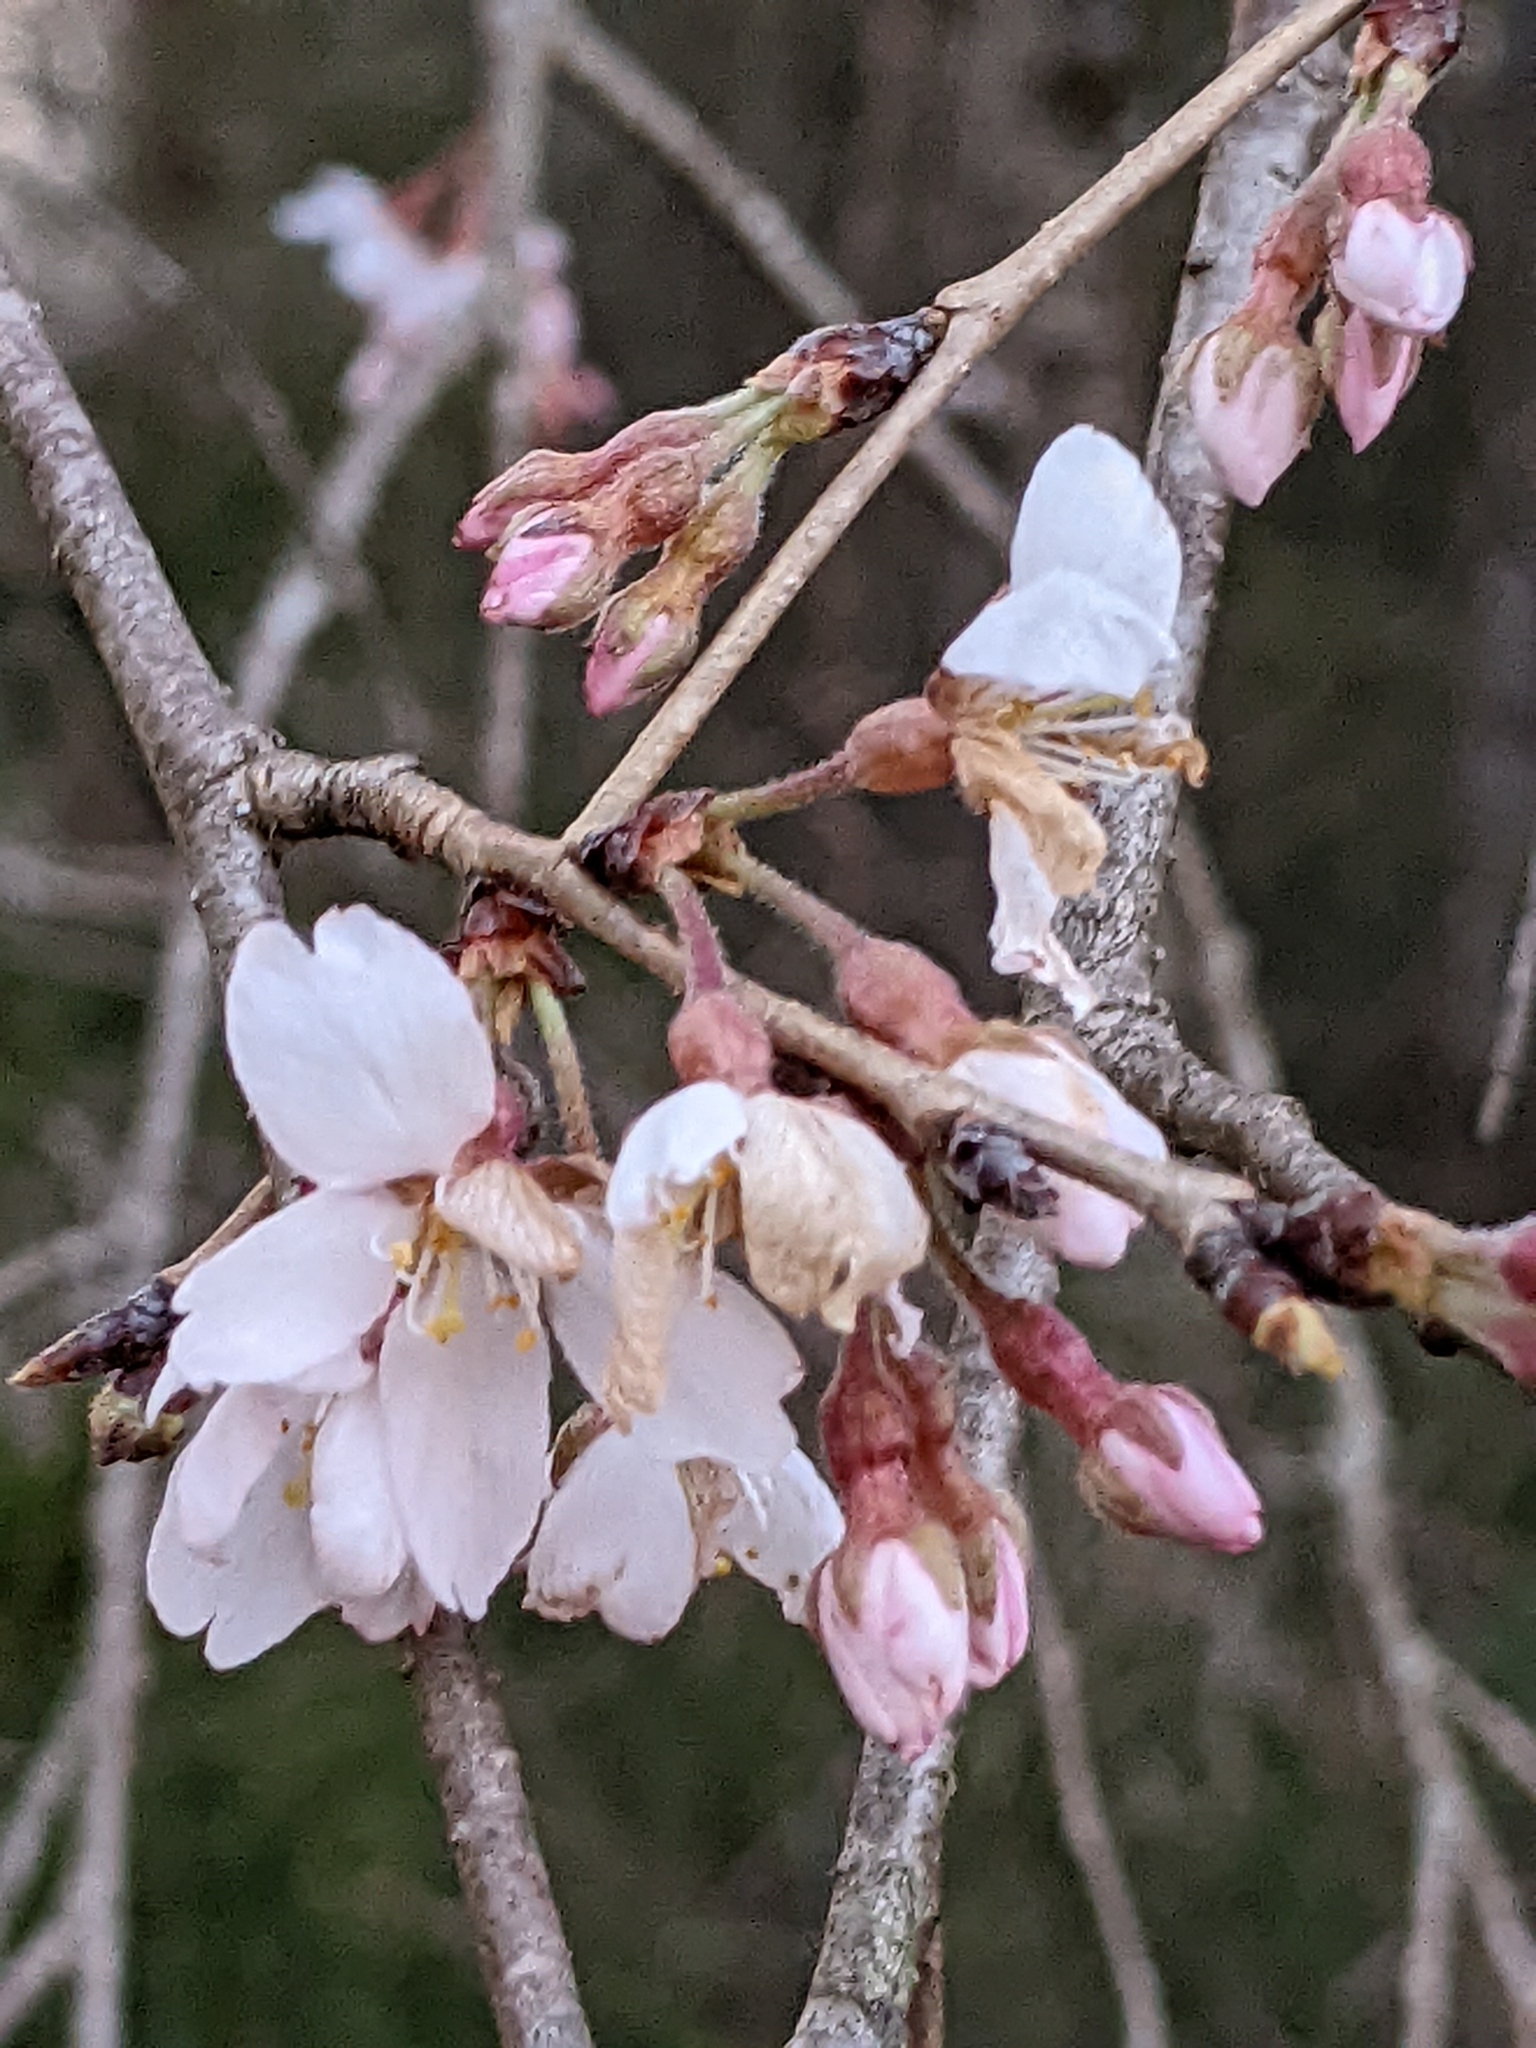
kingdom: Plantae
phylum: Tracheophyta
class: Magnoliopsida
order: Rosales
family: Rosaceae
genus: Prunus
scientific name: Prunus subhirtella
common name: Winter-flowering cherry
